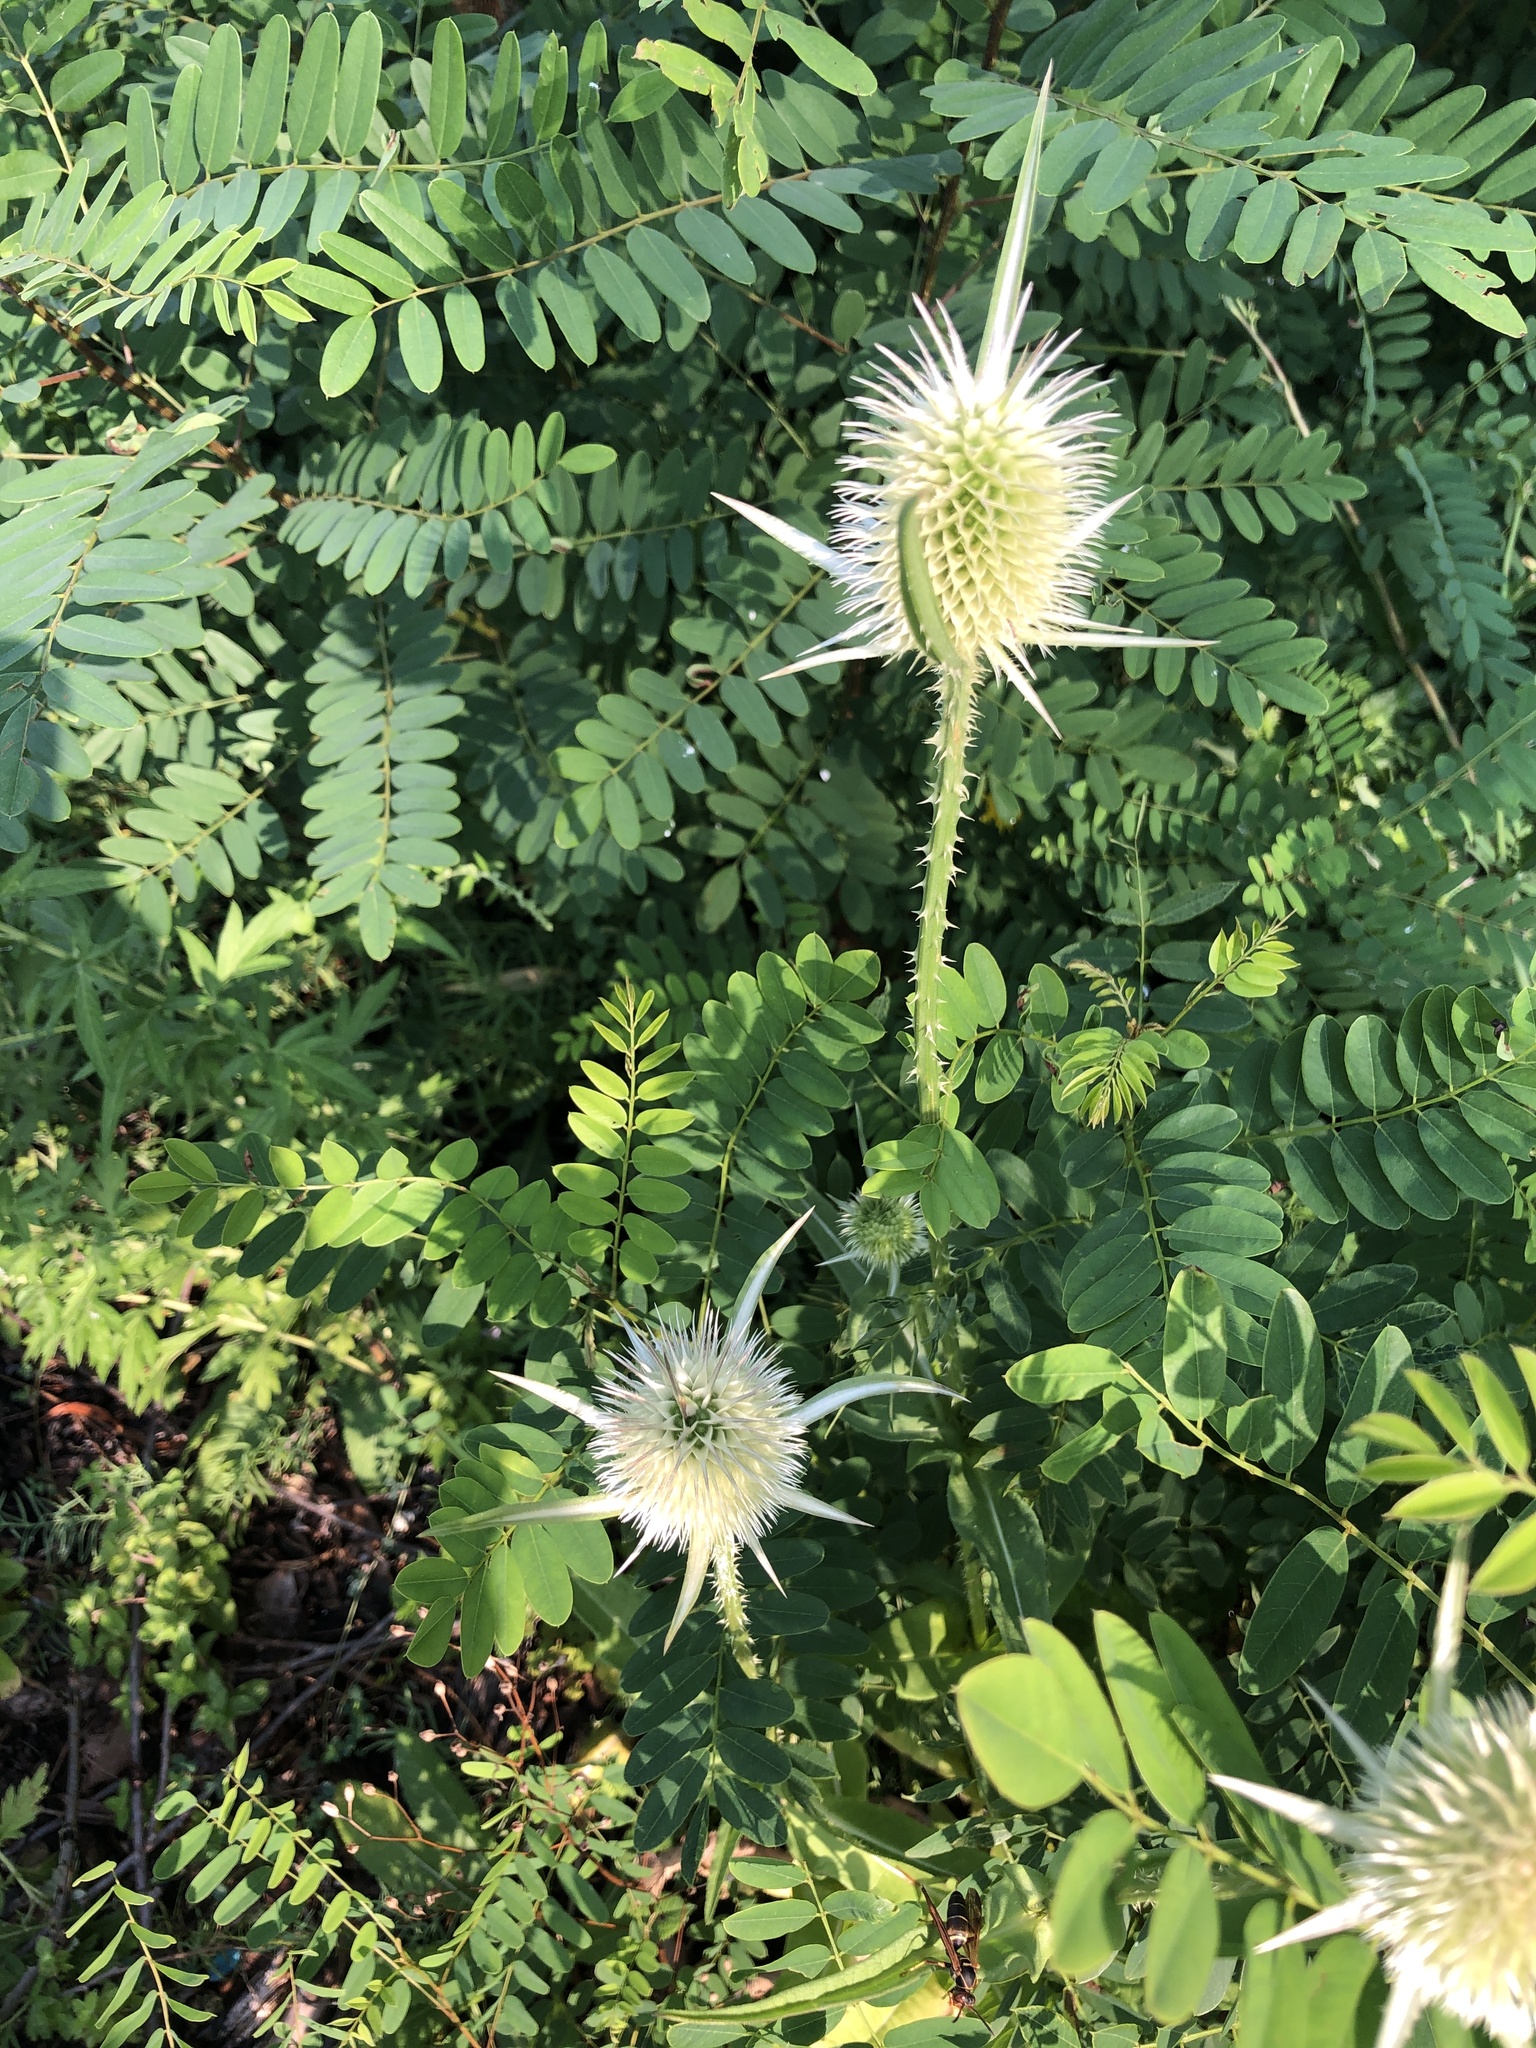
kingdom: Plantae
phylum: Tracheophyta
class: Magnoliopsida
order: Dipsacales
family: Caprifoliaceae
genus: Dipsacus
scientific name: Dipsacus laciniatus
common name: Cut-leaved teasel
